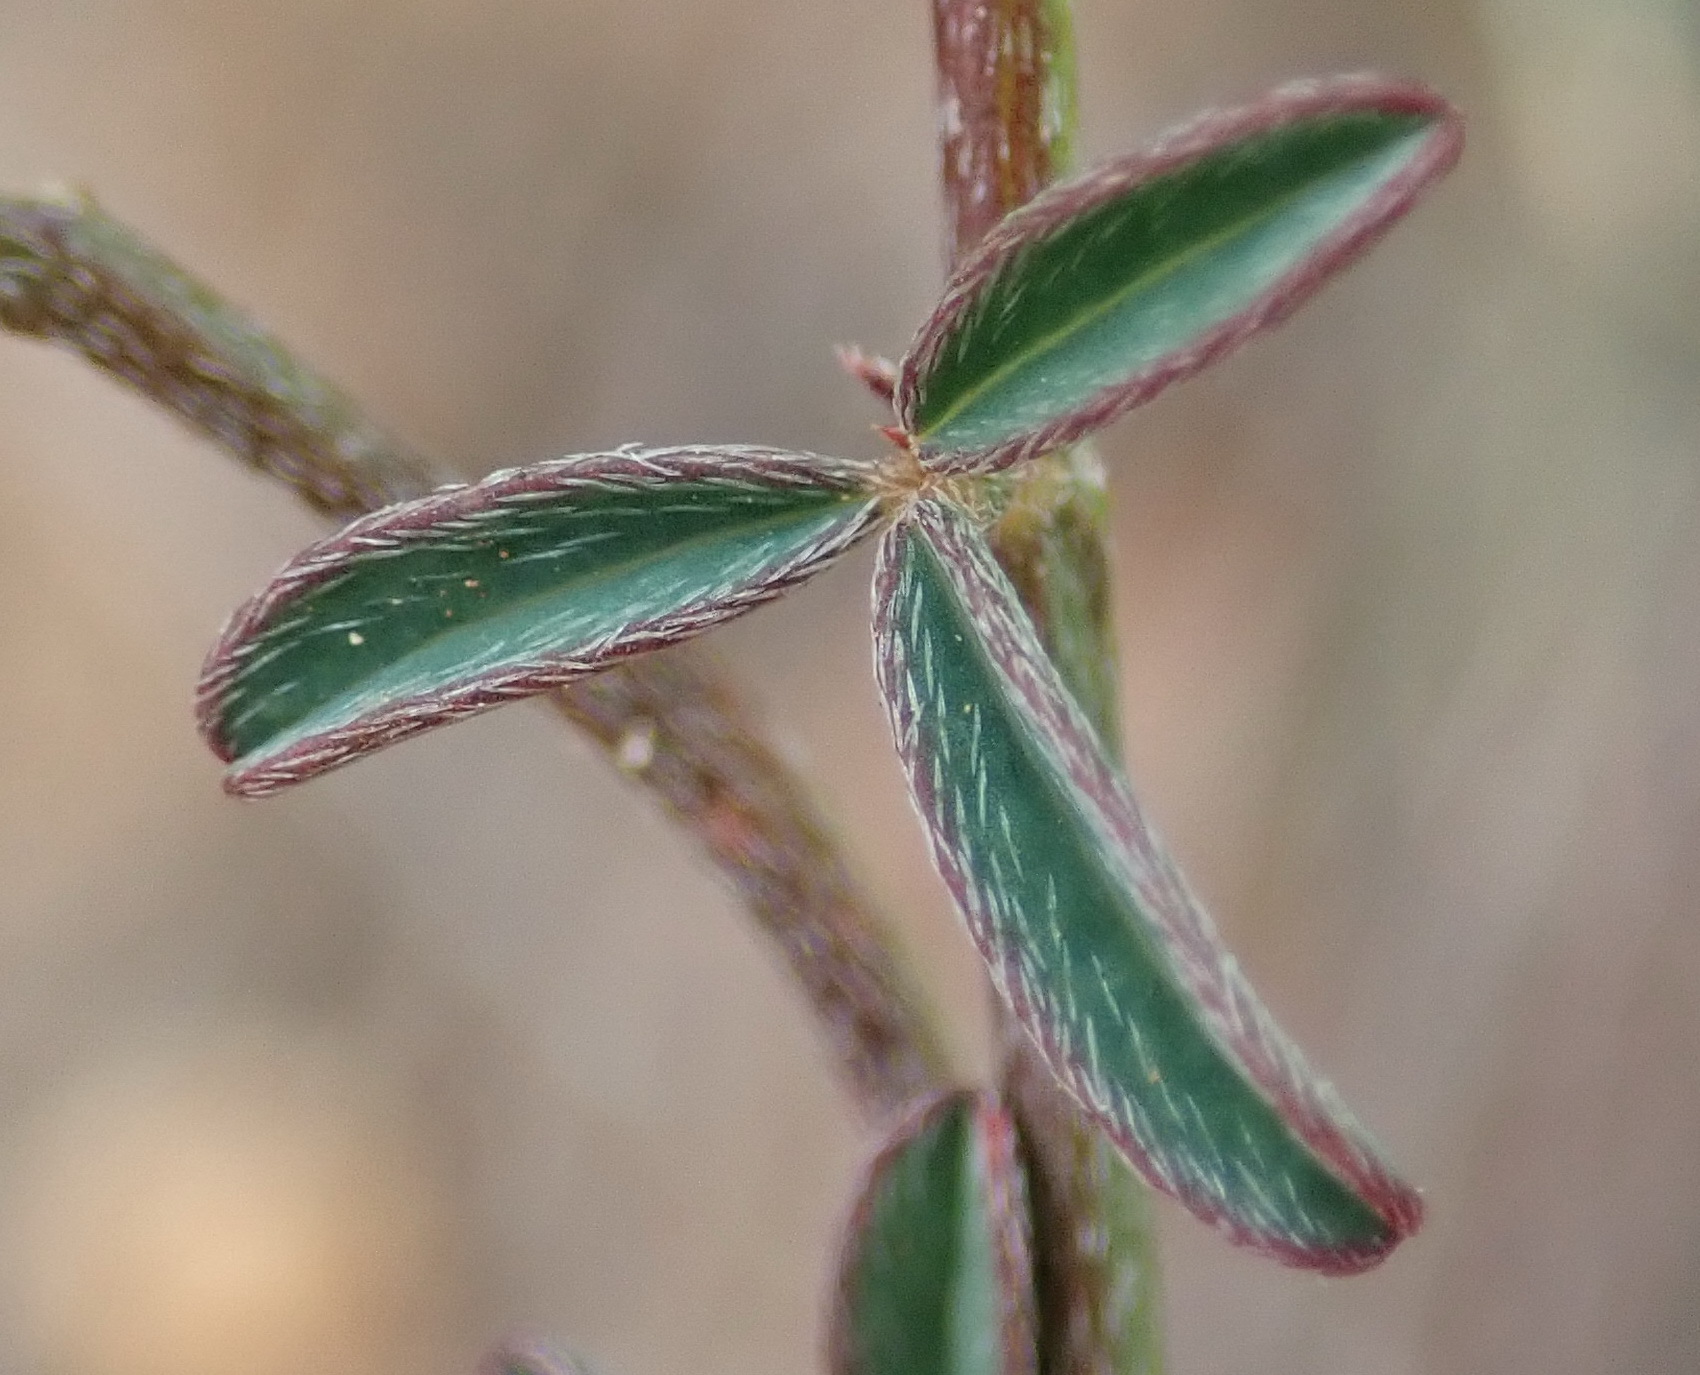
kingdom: Plantae
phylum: Tracheophyta
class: Magnoliopsida
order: Fabales
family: Fabaceae
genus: Indigofera
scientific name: Indigofera priorii
